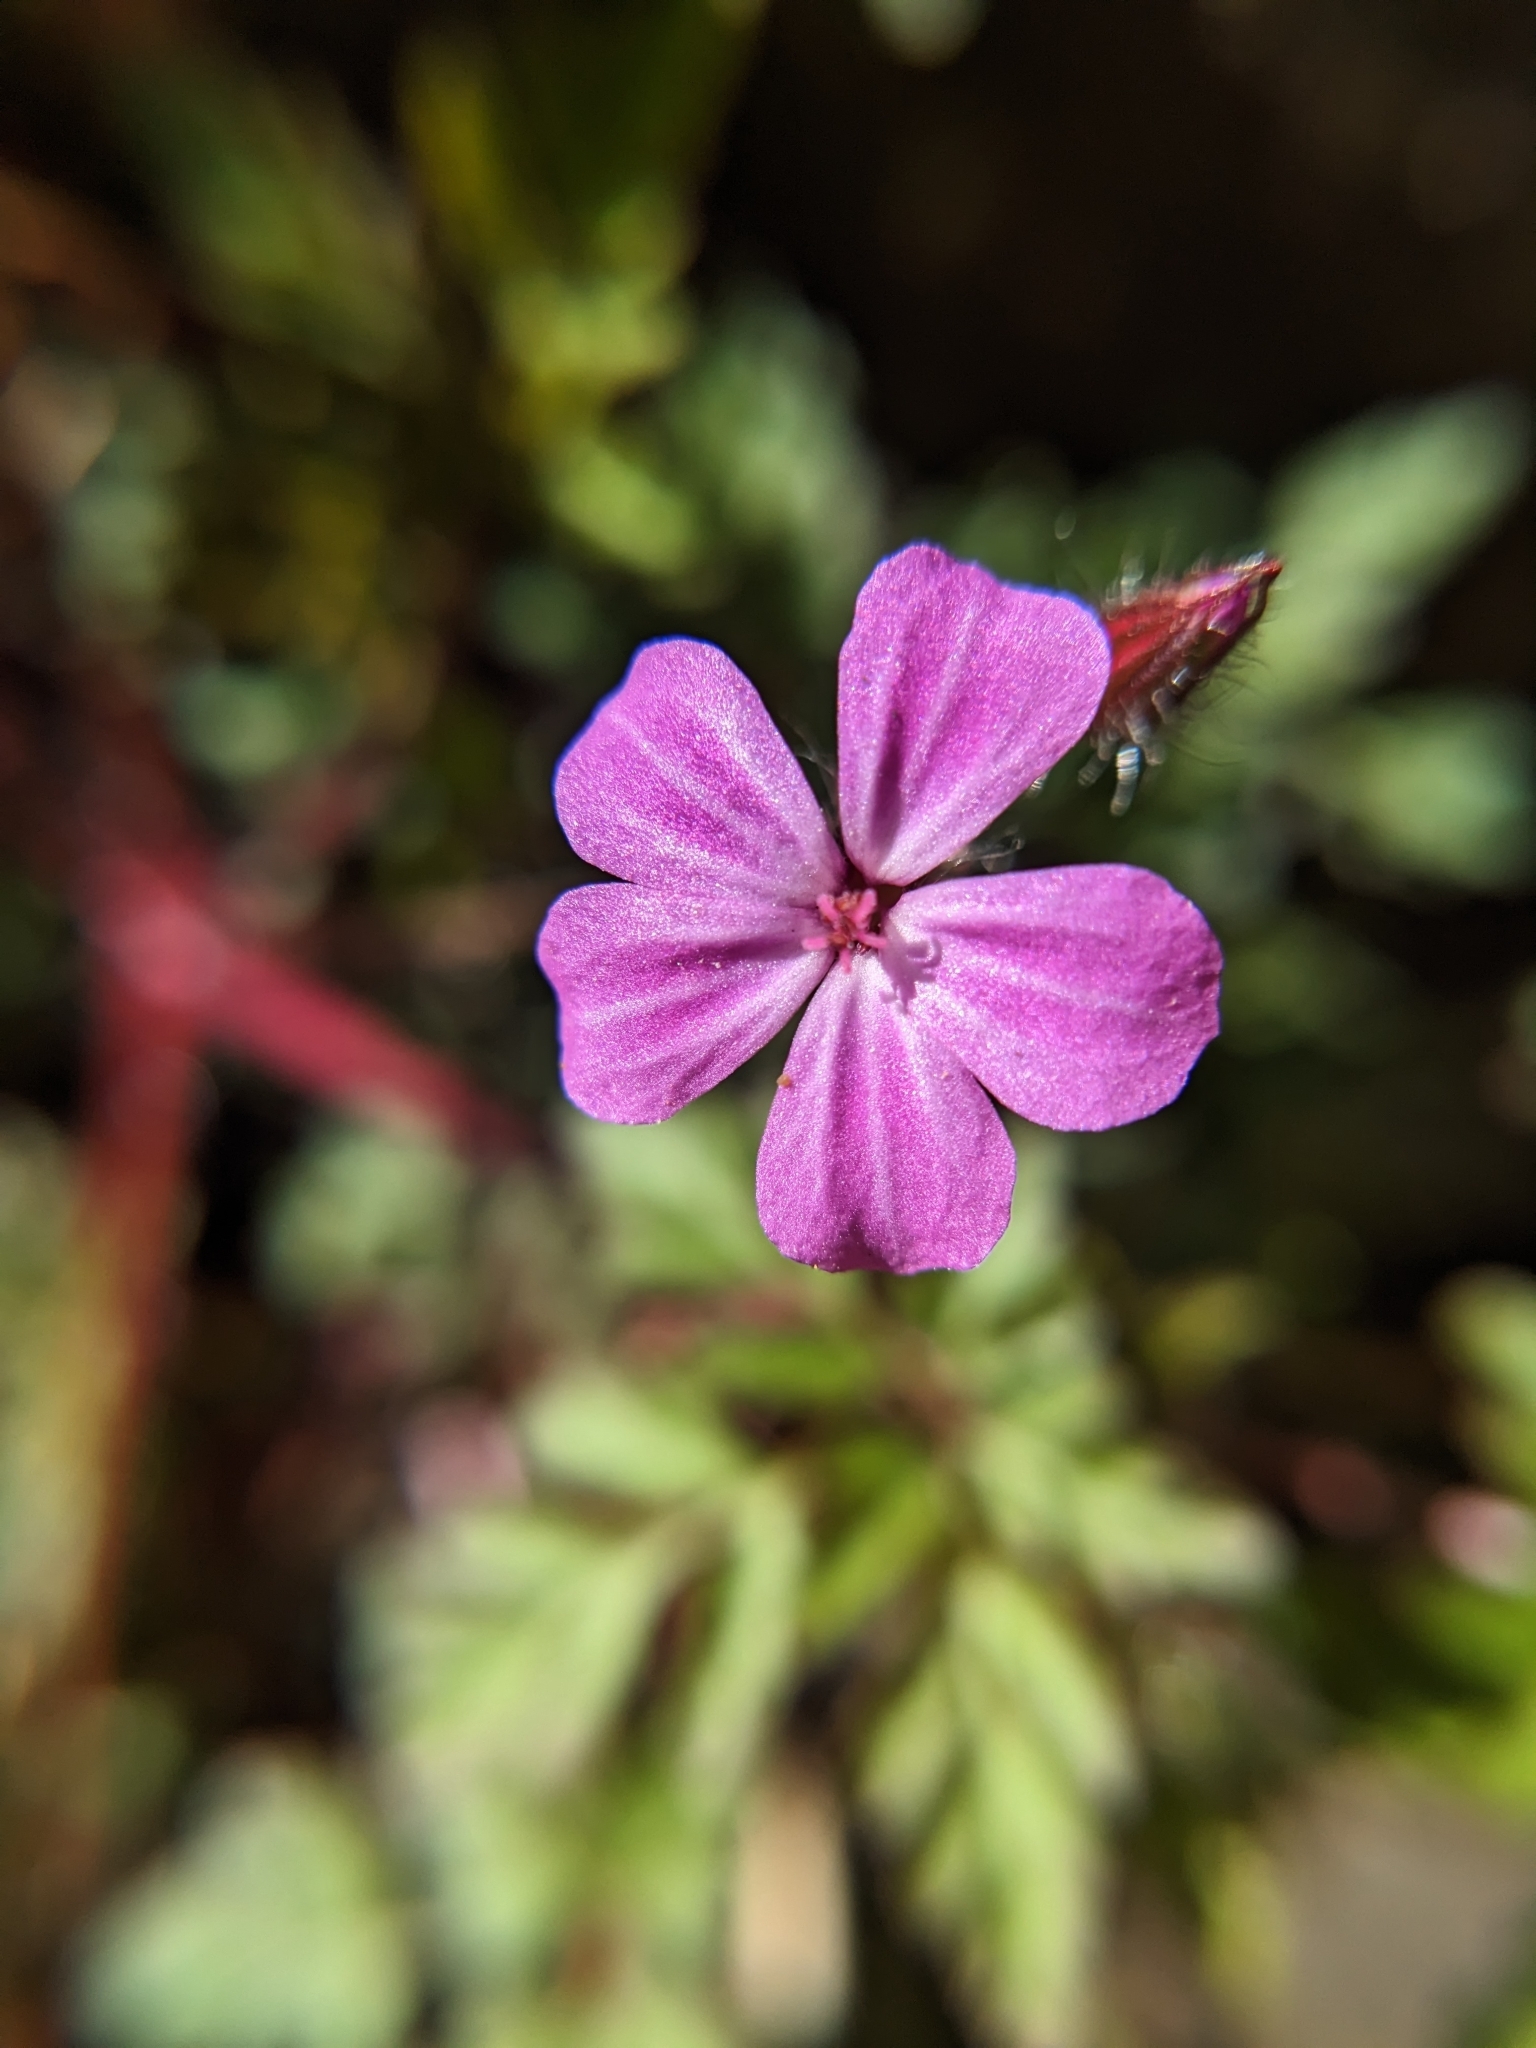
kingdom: Plantae
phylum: Tracheophyta
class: Magnoliopsida
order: Geraniales
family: Geraniaceae
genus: Geranium
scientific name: Geranium robertianum
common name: Herb-robert
